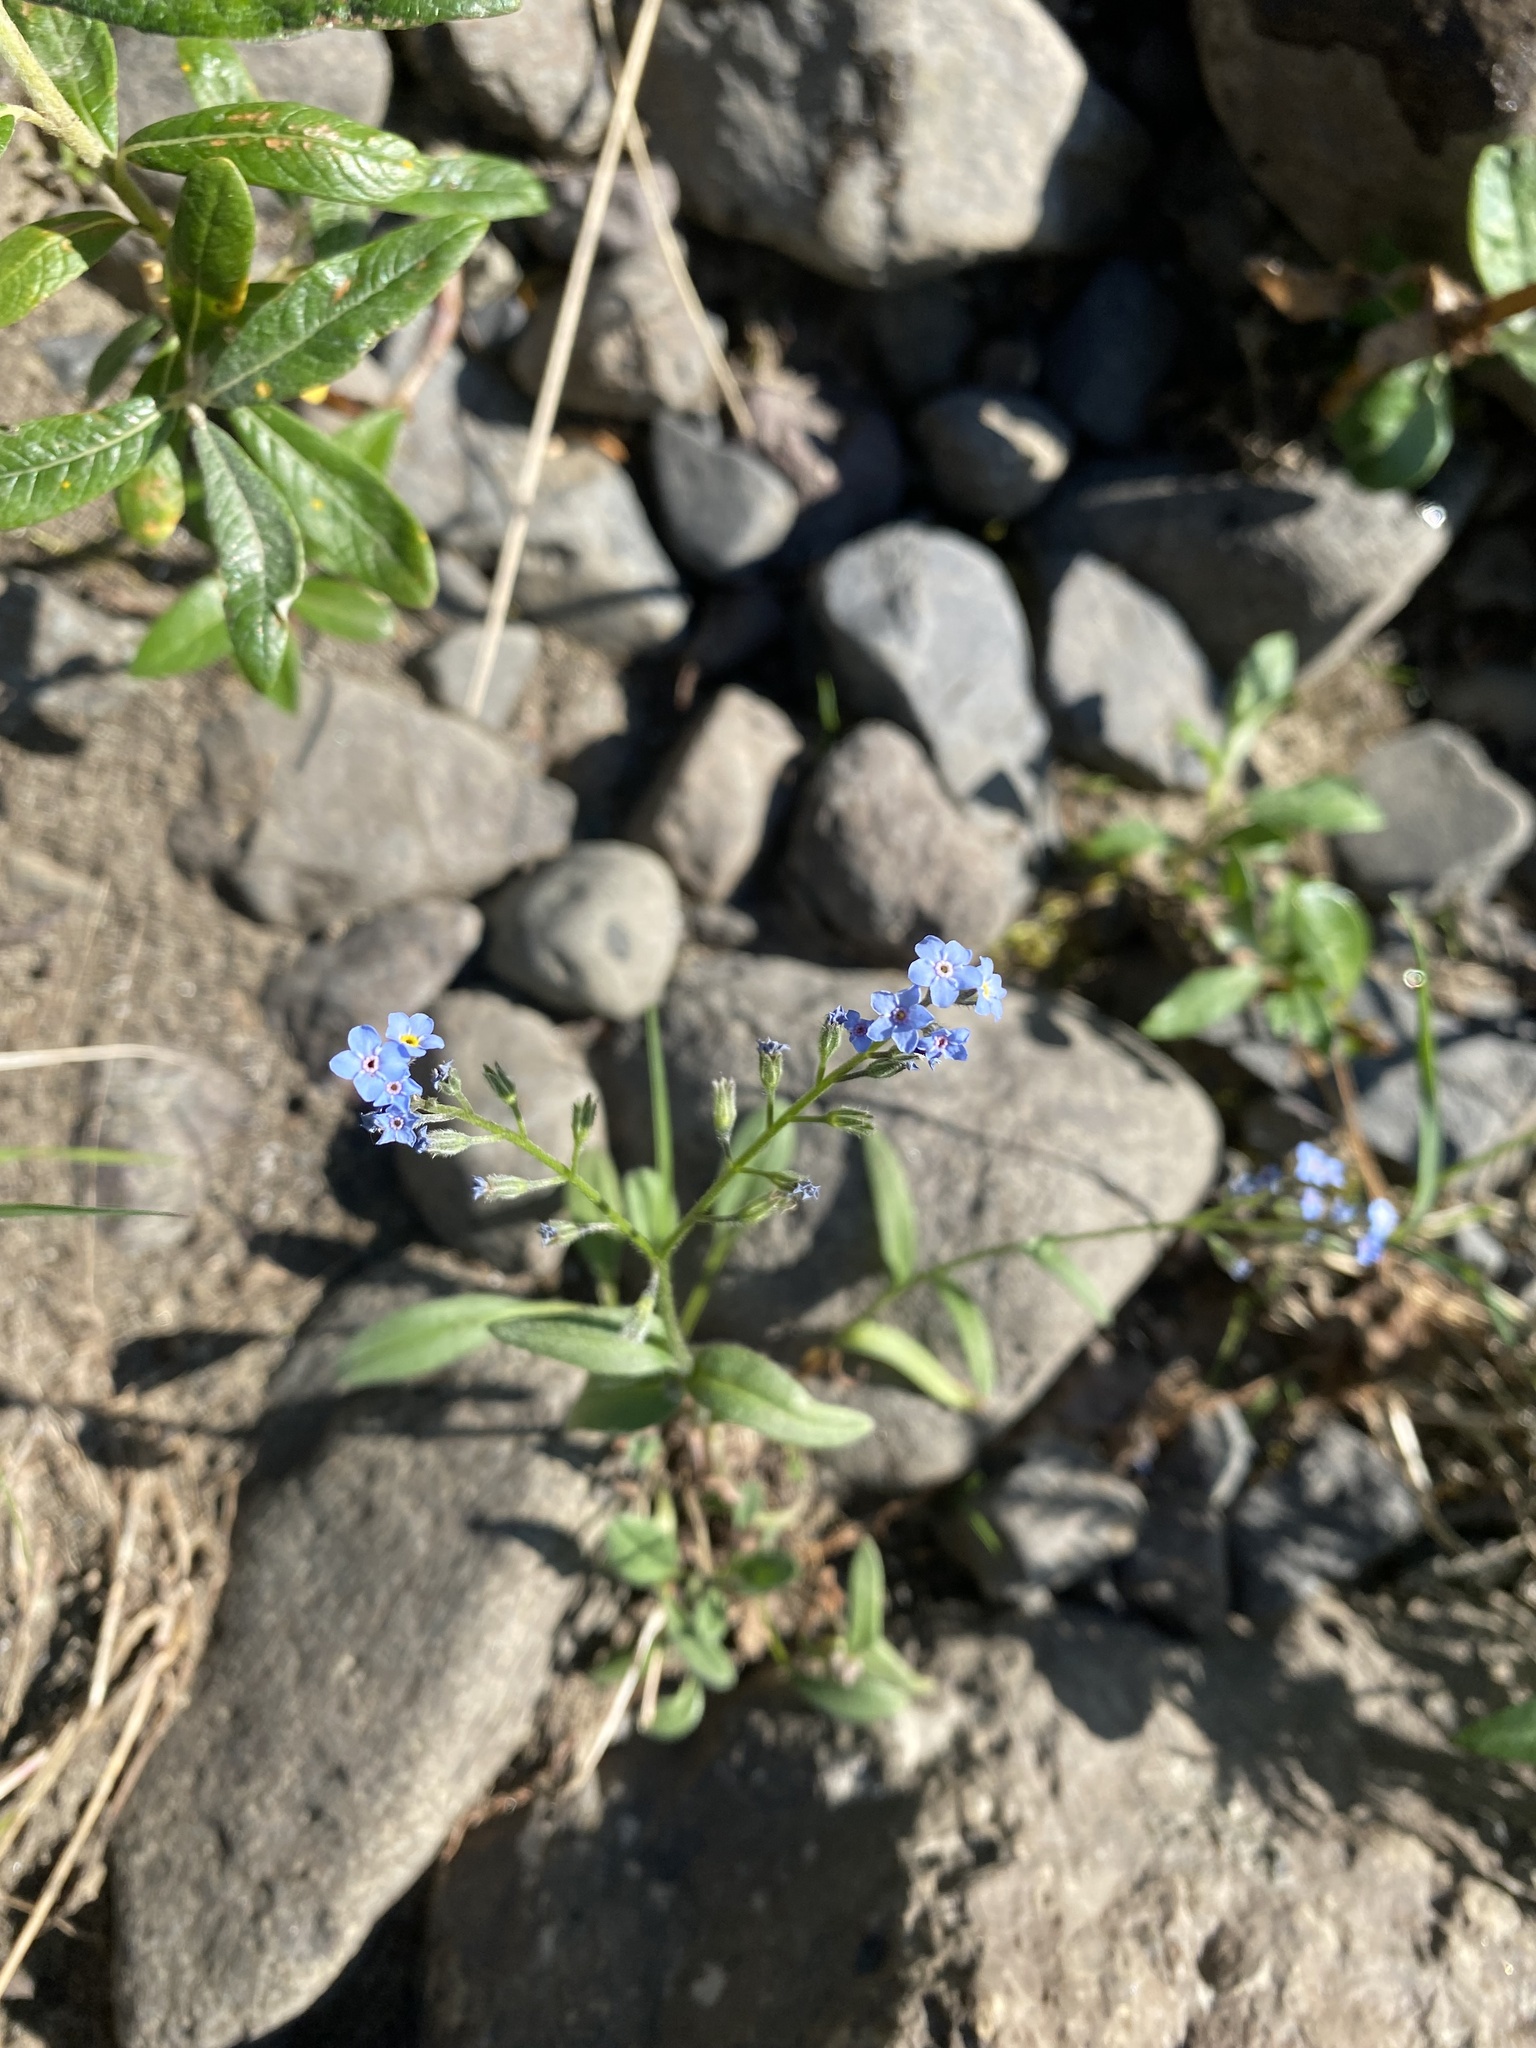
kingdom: Plantae
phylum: Tracheophyta
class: Magnoliopsida
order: Boraginales
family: Boraginaceae
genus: Myosotis
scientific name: Myosotis asiatica
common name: Asian forget-me-not
